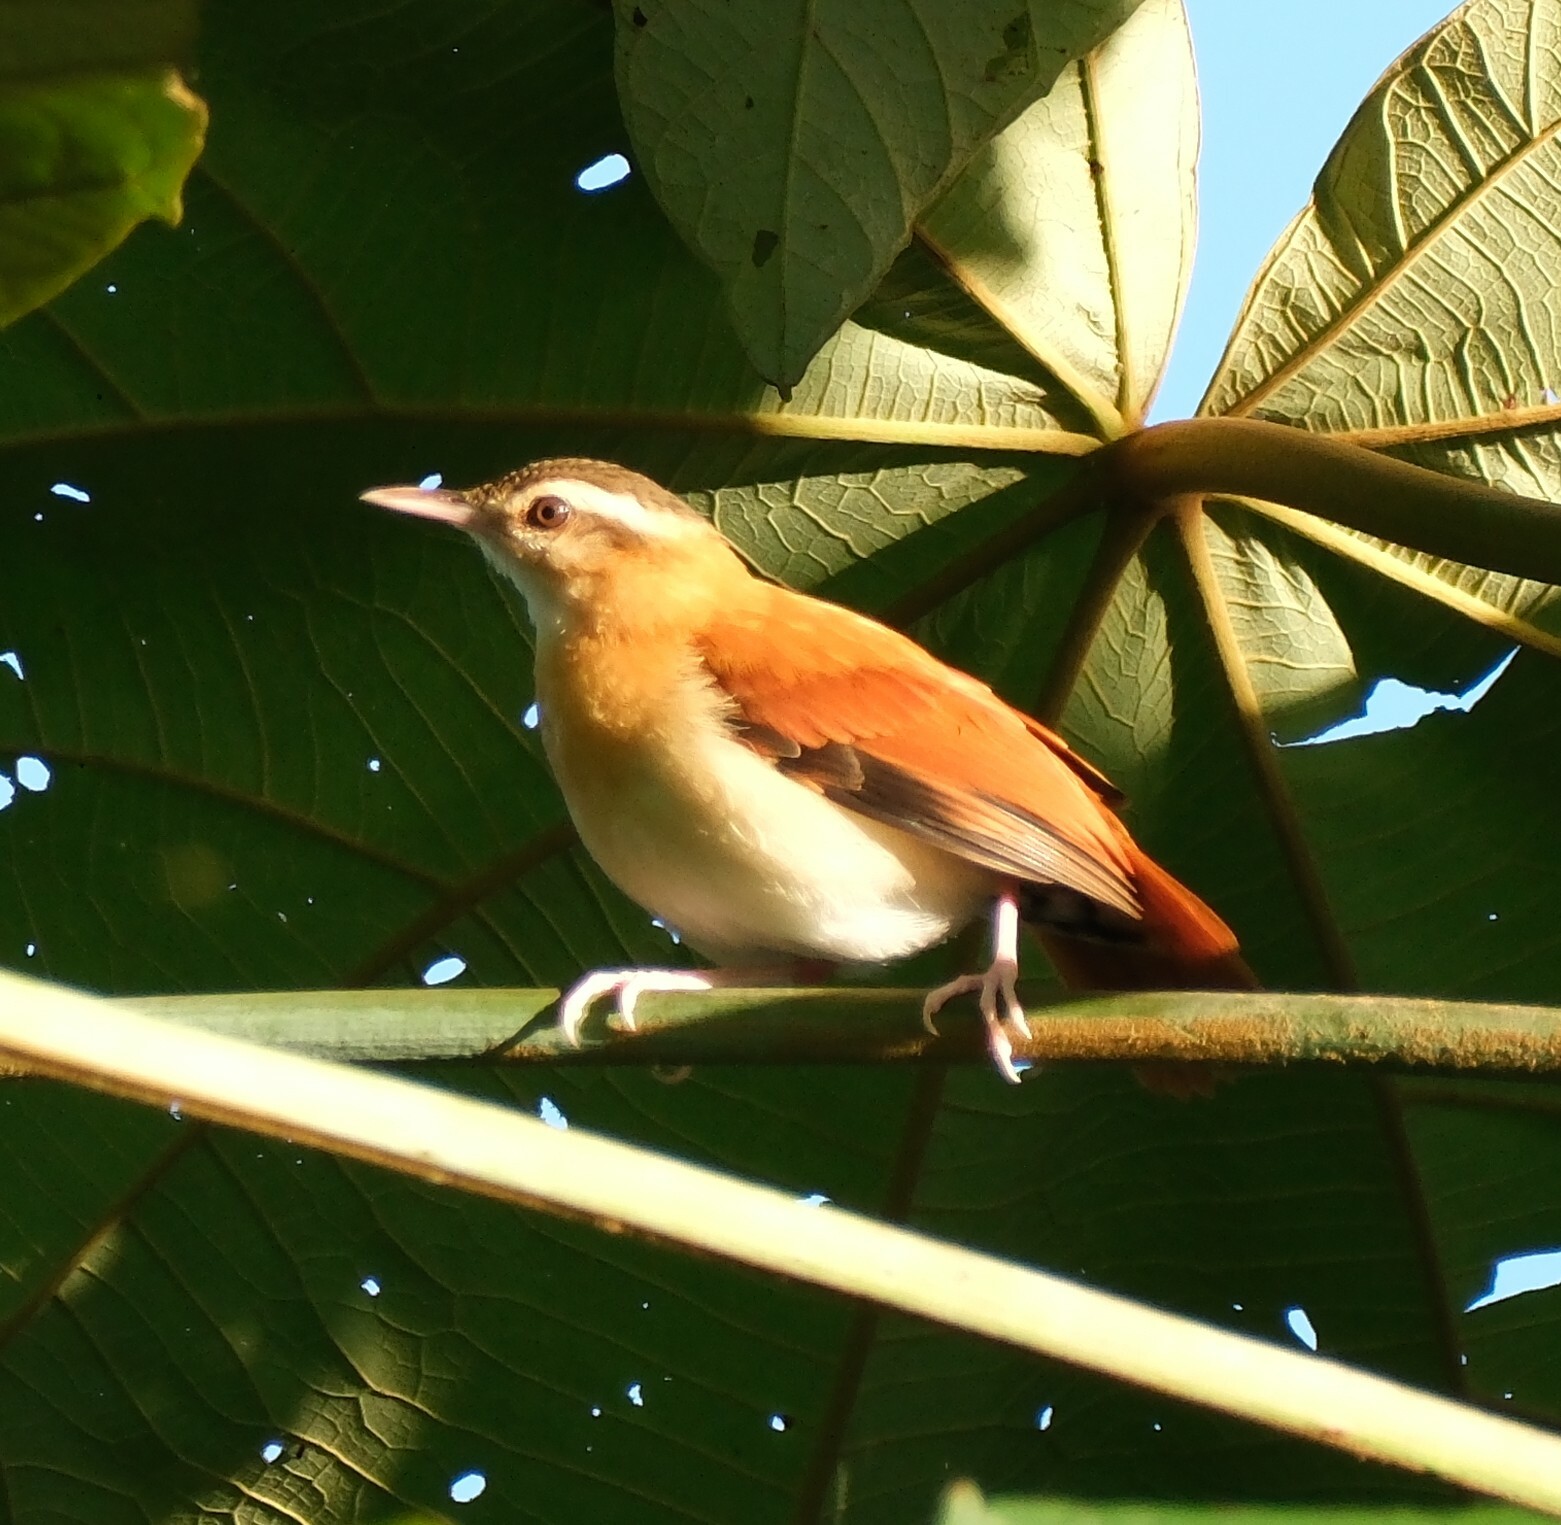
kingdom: Animalia
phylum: Chordata
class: Aves
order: Passeriformes
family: Furnariidae
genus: Furnarius
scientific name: Furnarius leucopus
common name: Pale-legged hornero
